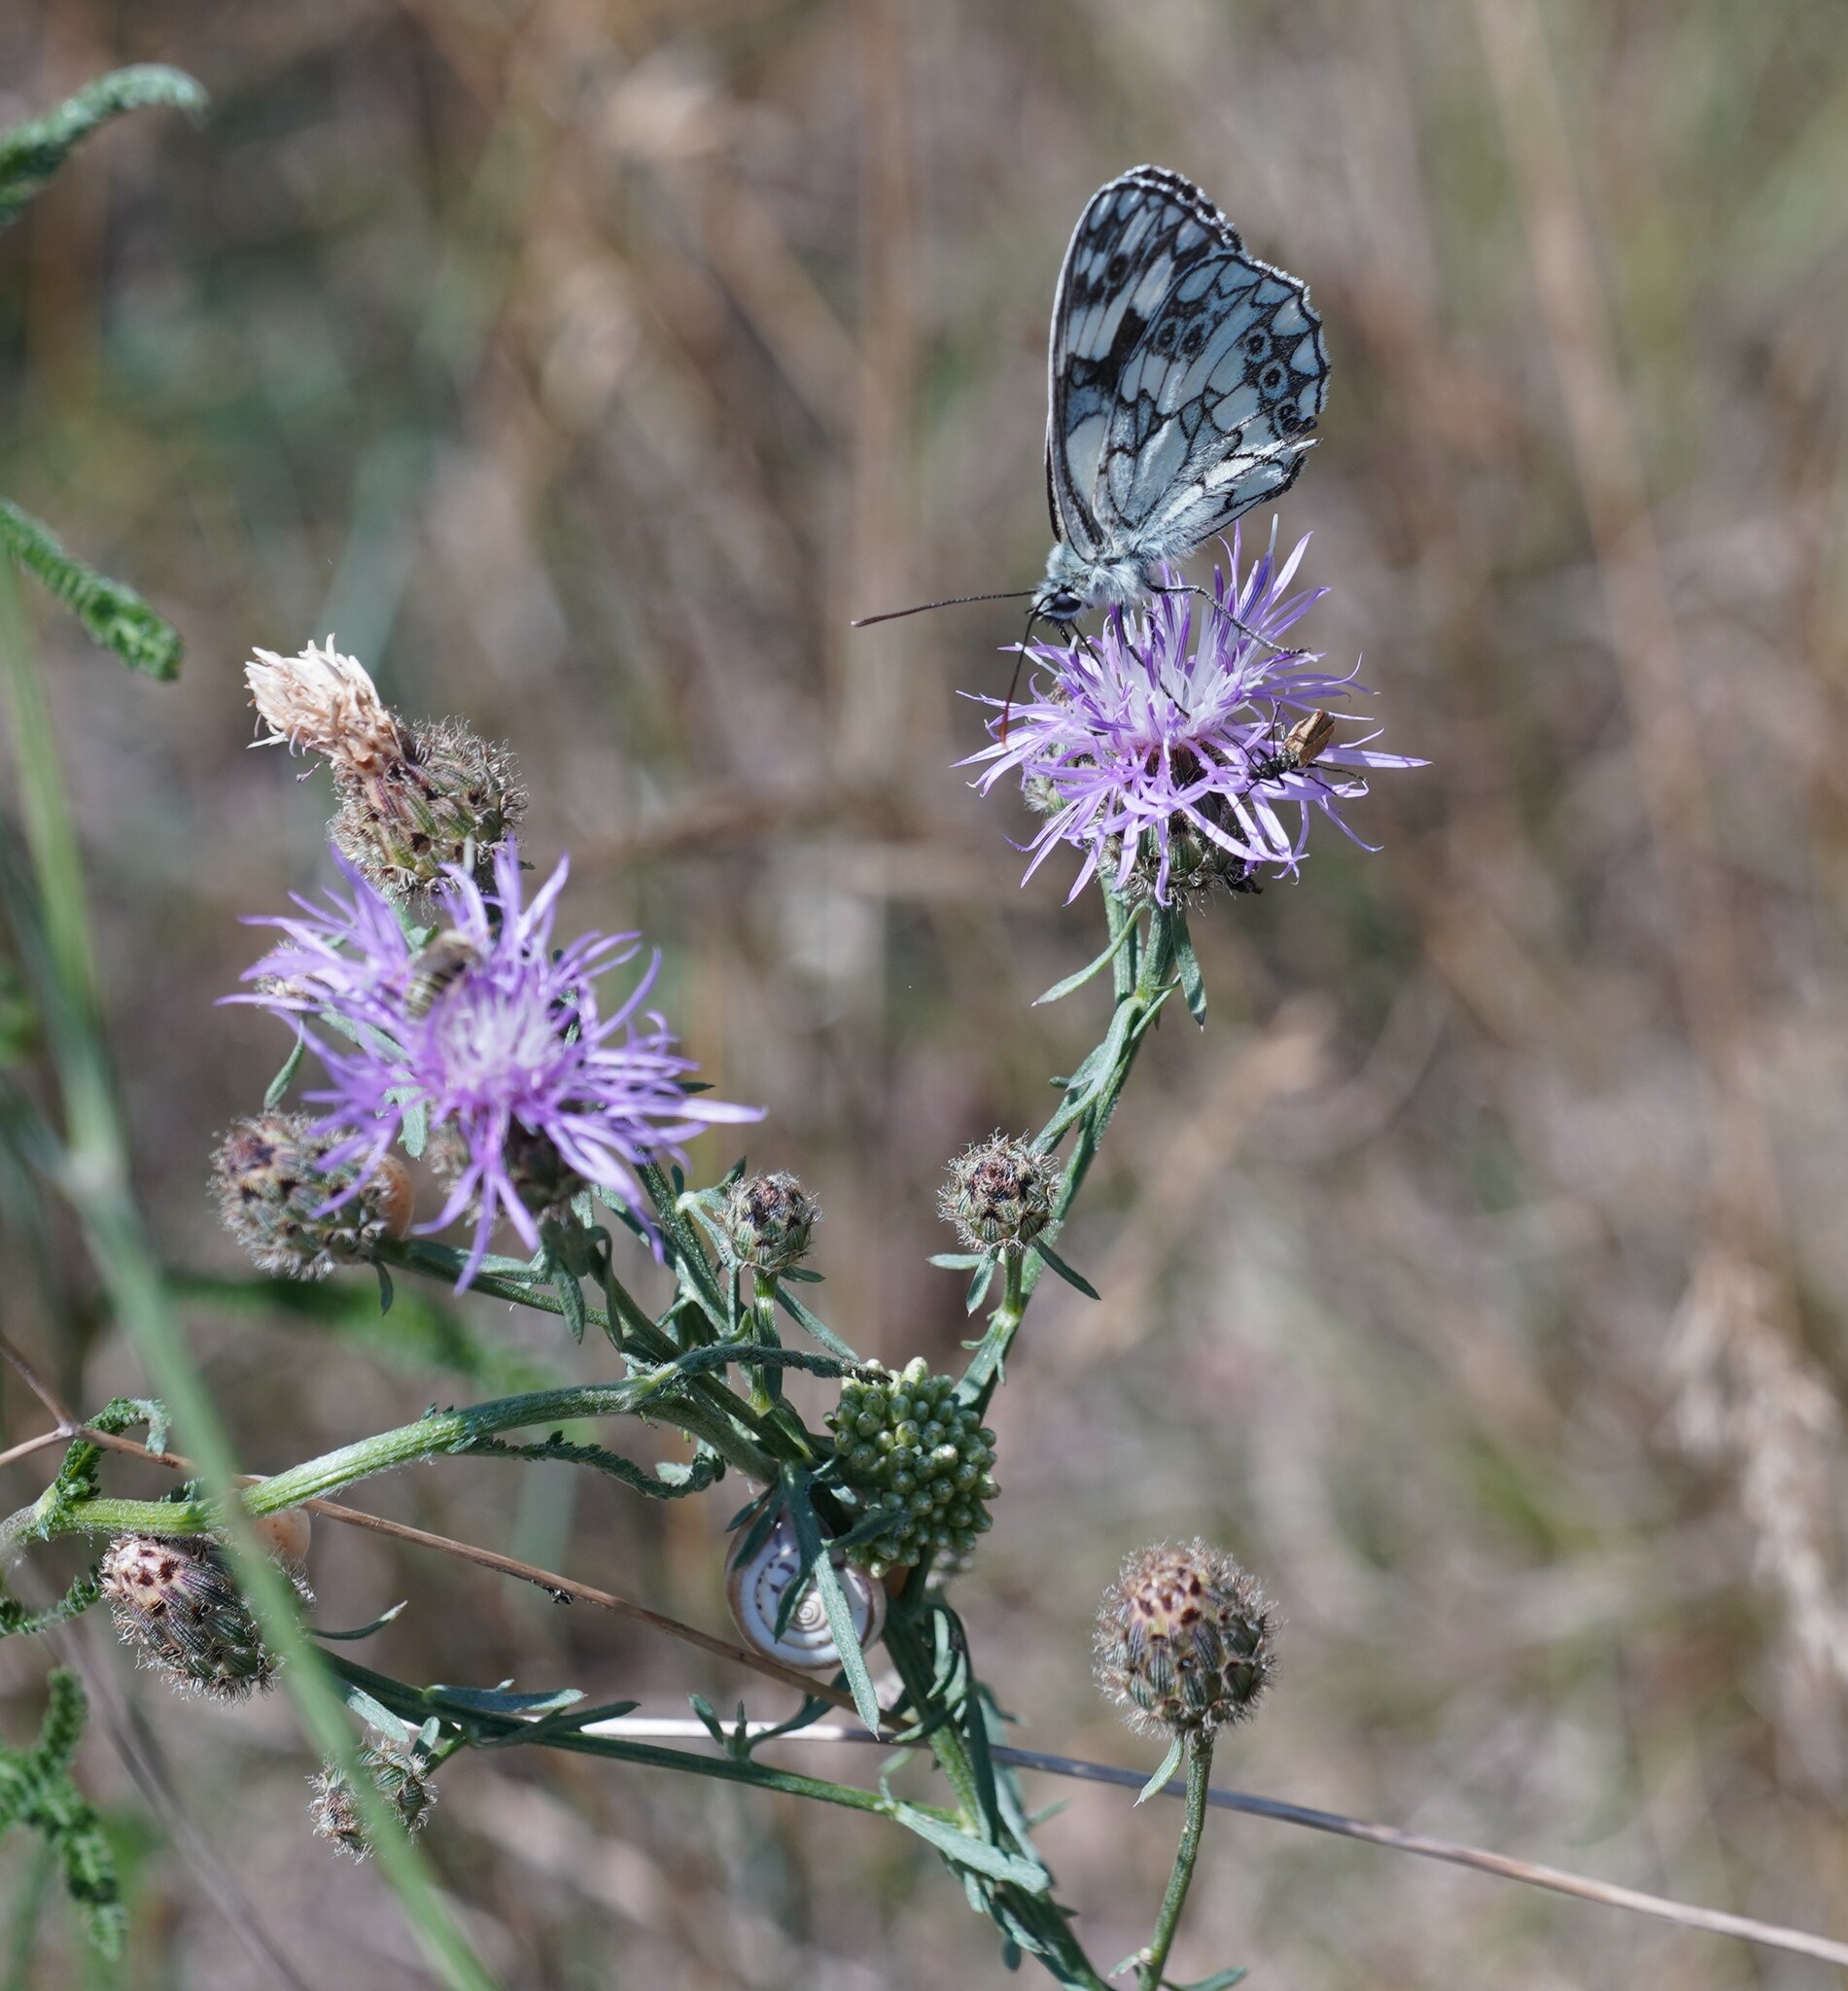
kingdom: Animalia
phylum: Arthropoda
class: Insecta
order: Lepidoptera
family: Nymphalidae
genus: Melanargia
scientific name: Melanargia galathea
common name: Marbled white
